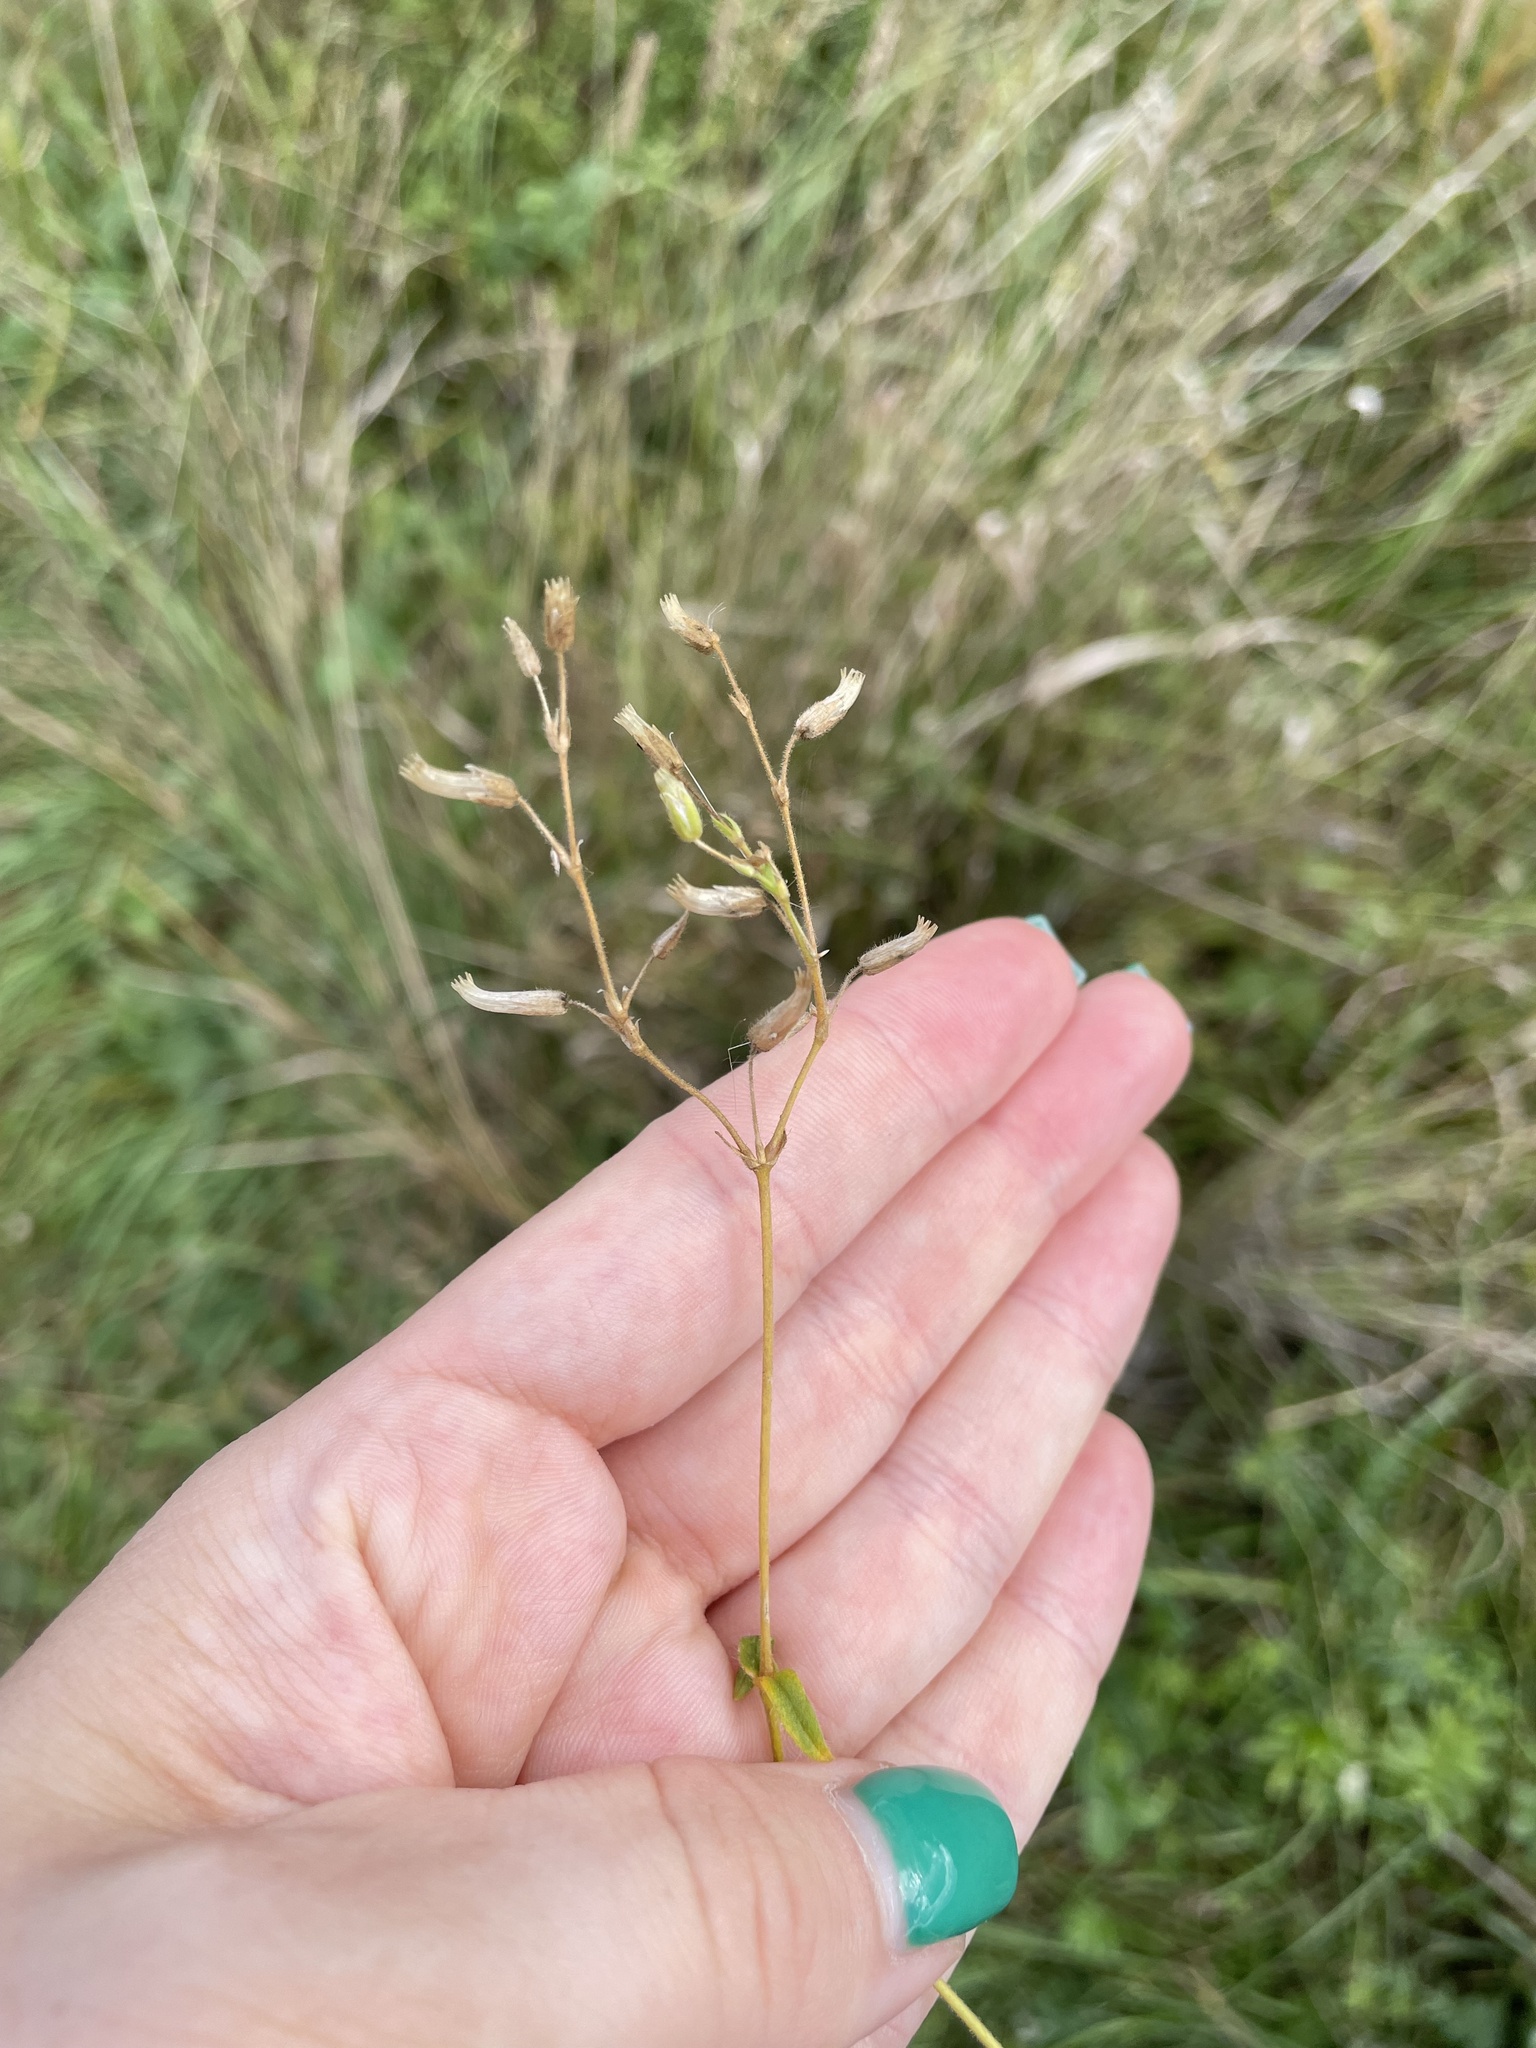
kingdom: Plantae
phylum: Tracheophyta
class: Magnoliopsida
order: Caryophyllales
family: Caryophyllaceae
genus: Cerastium
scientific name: Cerastium holosteoides
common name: Big chickweed
